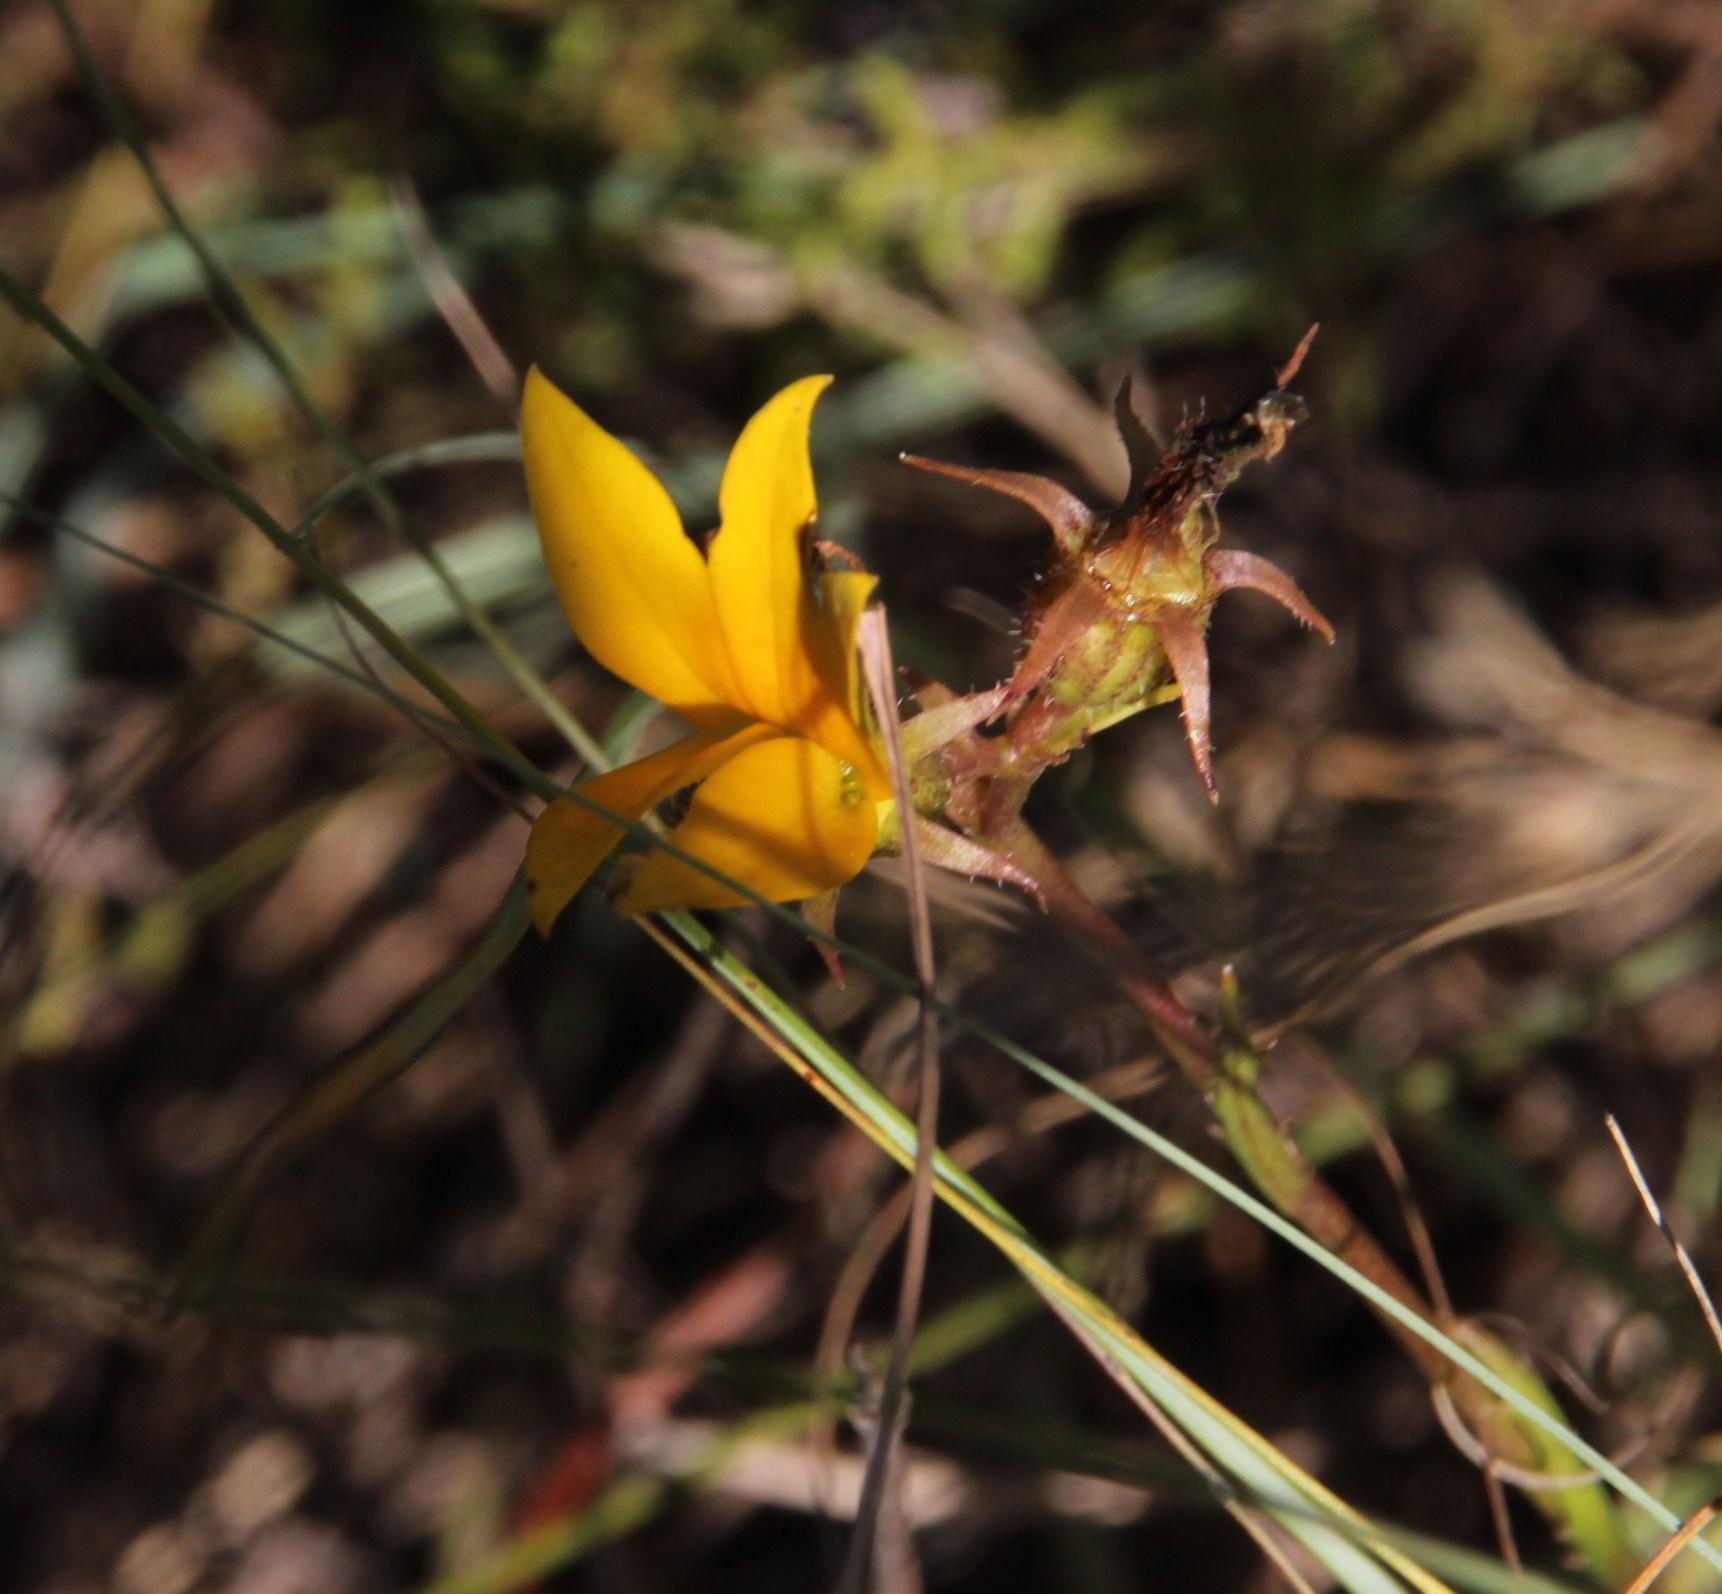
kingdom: Plantae
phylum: Tracheophyta
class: Magnoliopsida
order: Asterales
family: Campanulaceae
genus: Monopsis
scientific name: Monopsis lutea
